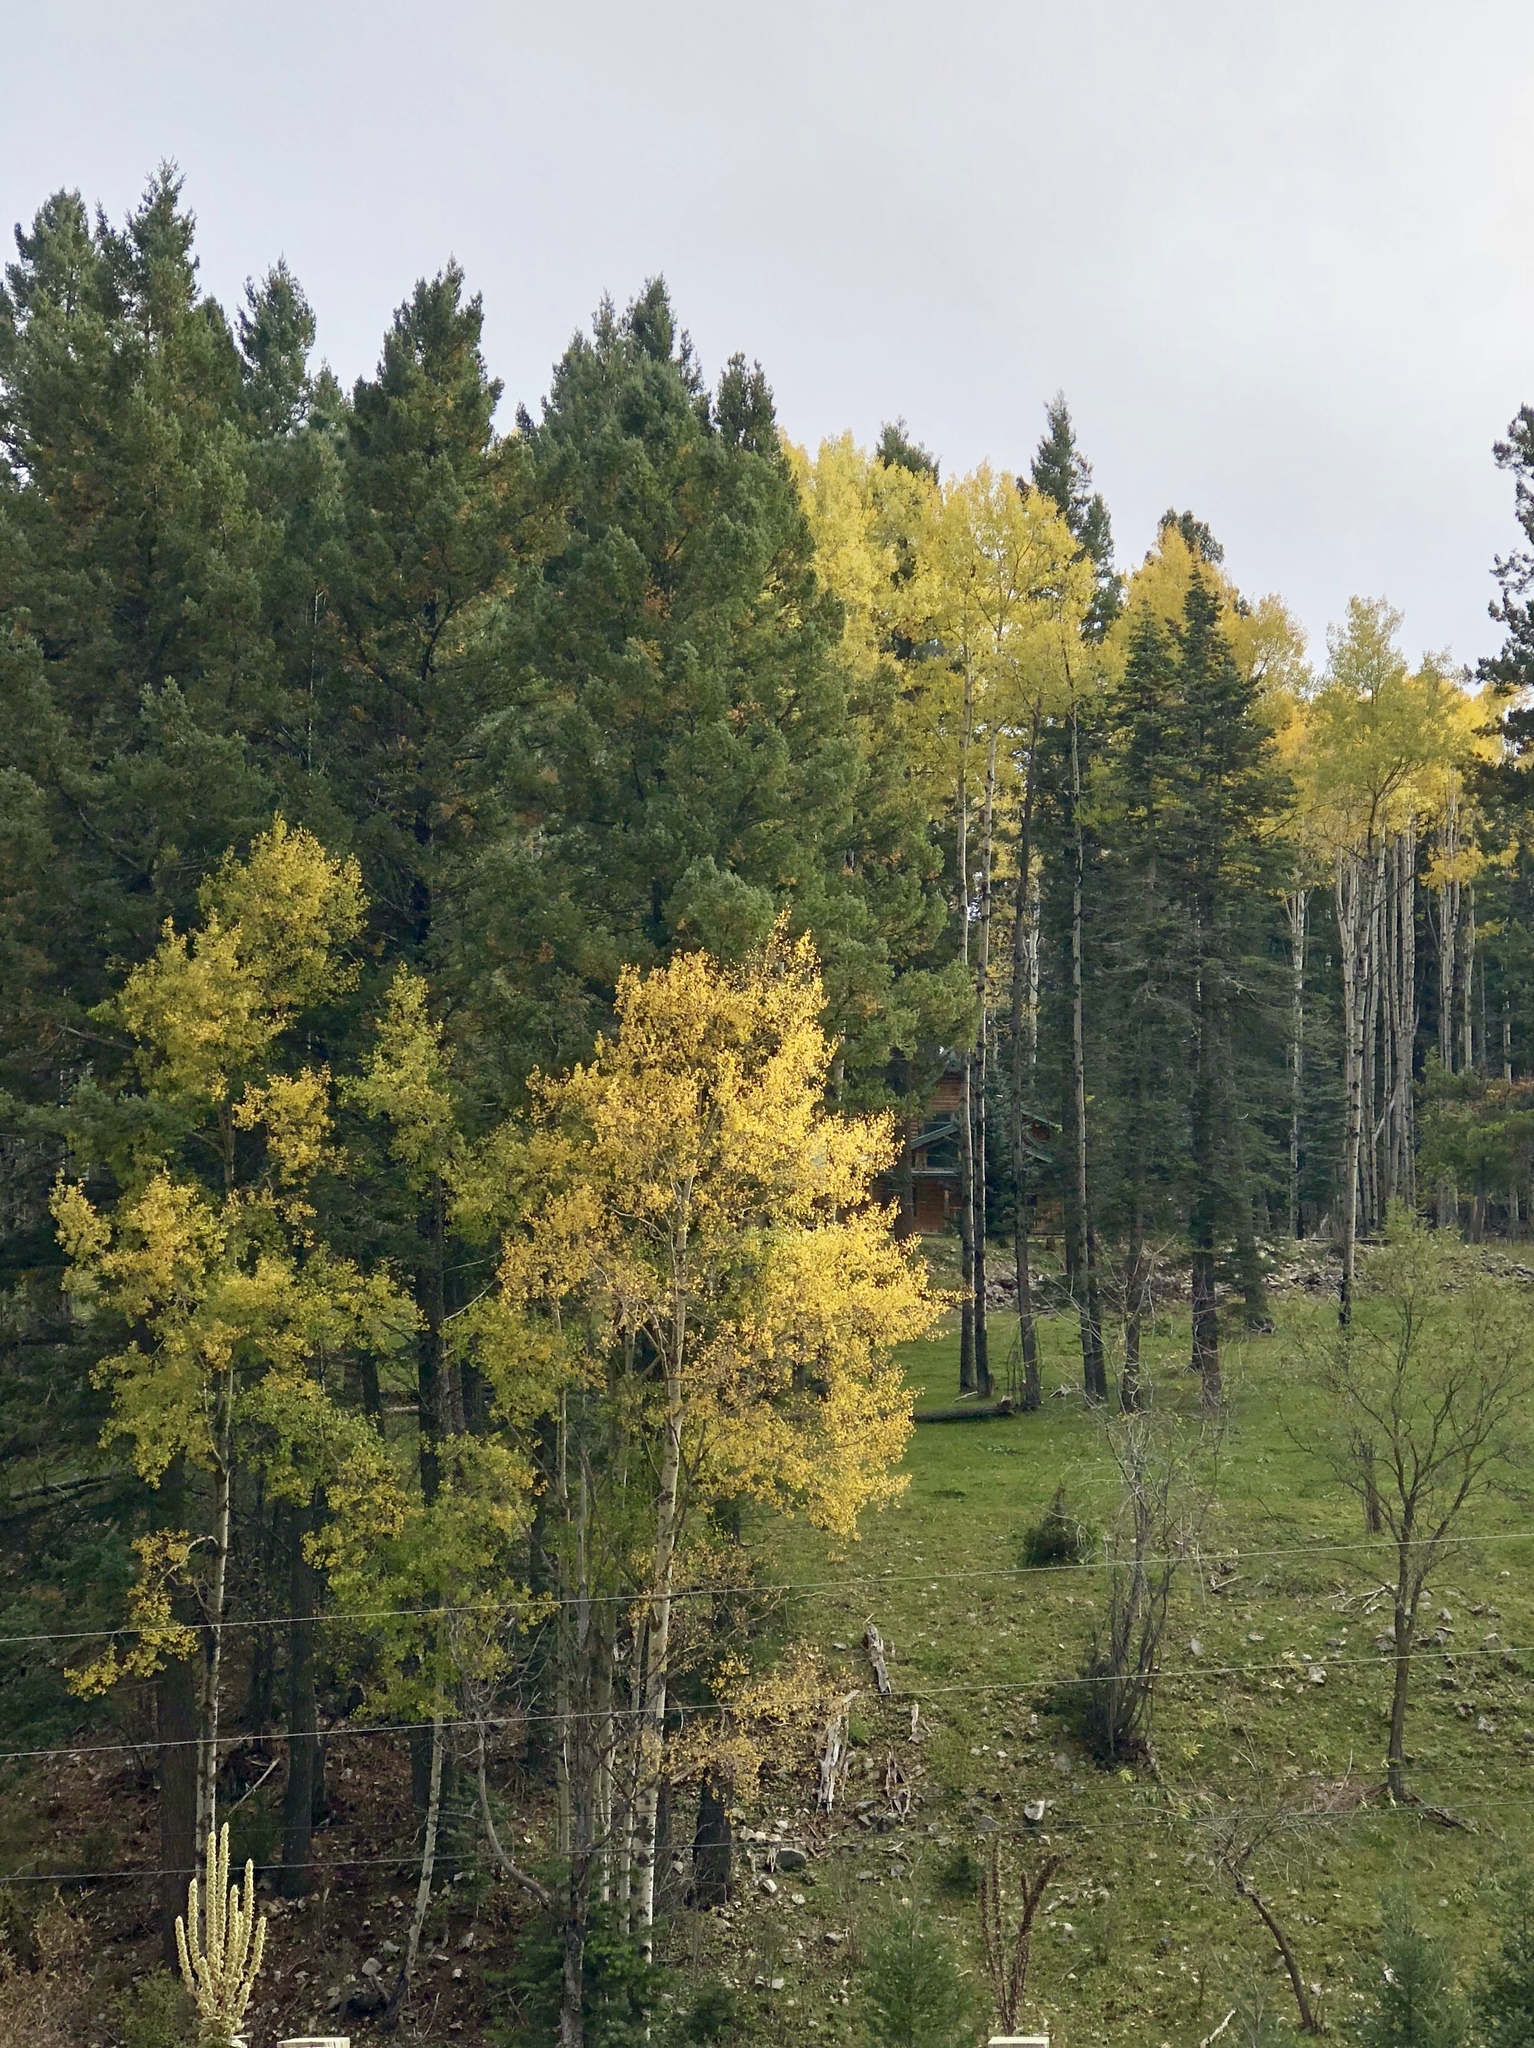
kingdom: Plantae
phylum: Tracheophyta
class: Magnoliopsida
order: Malpighiales
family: Salicaceae
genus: Populus
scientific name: Populus tremuloides
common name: Quaking aspen
